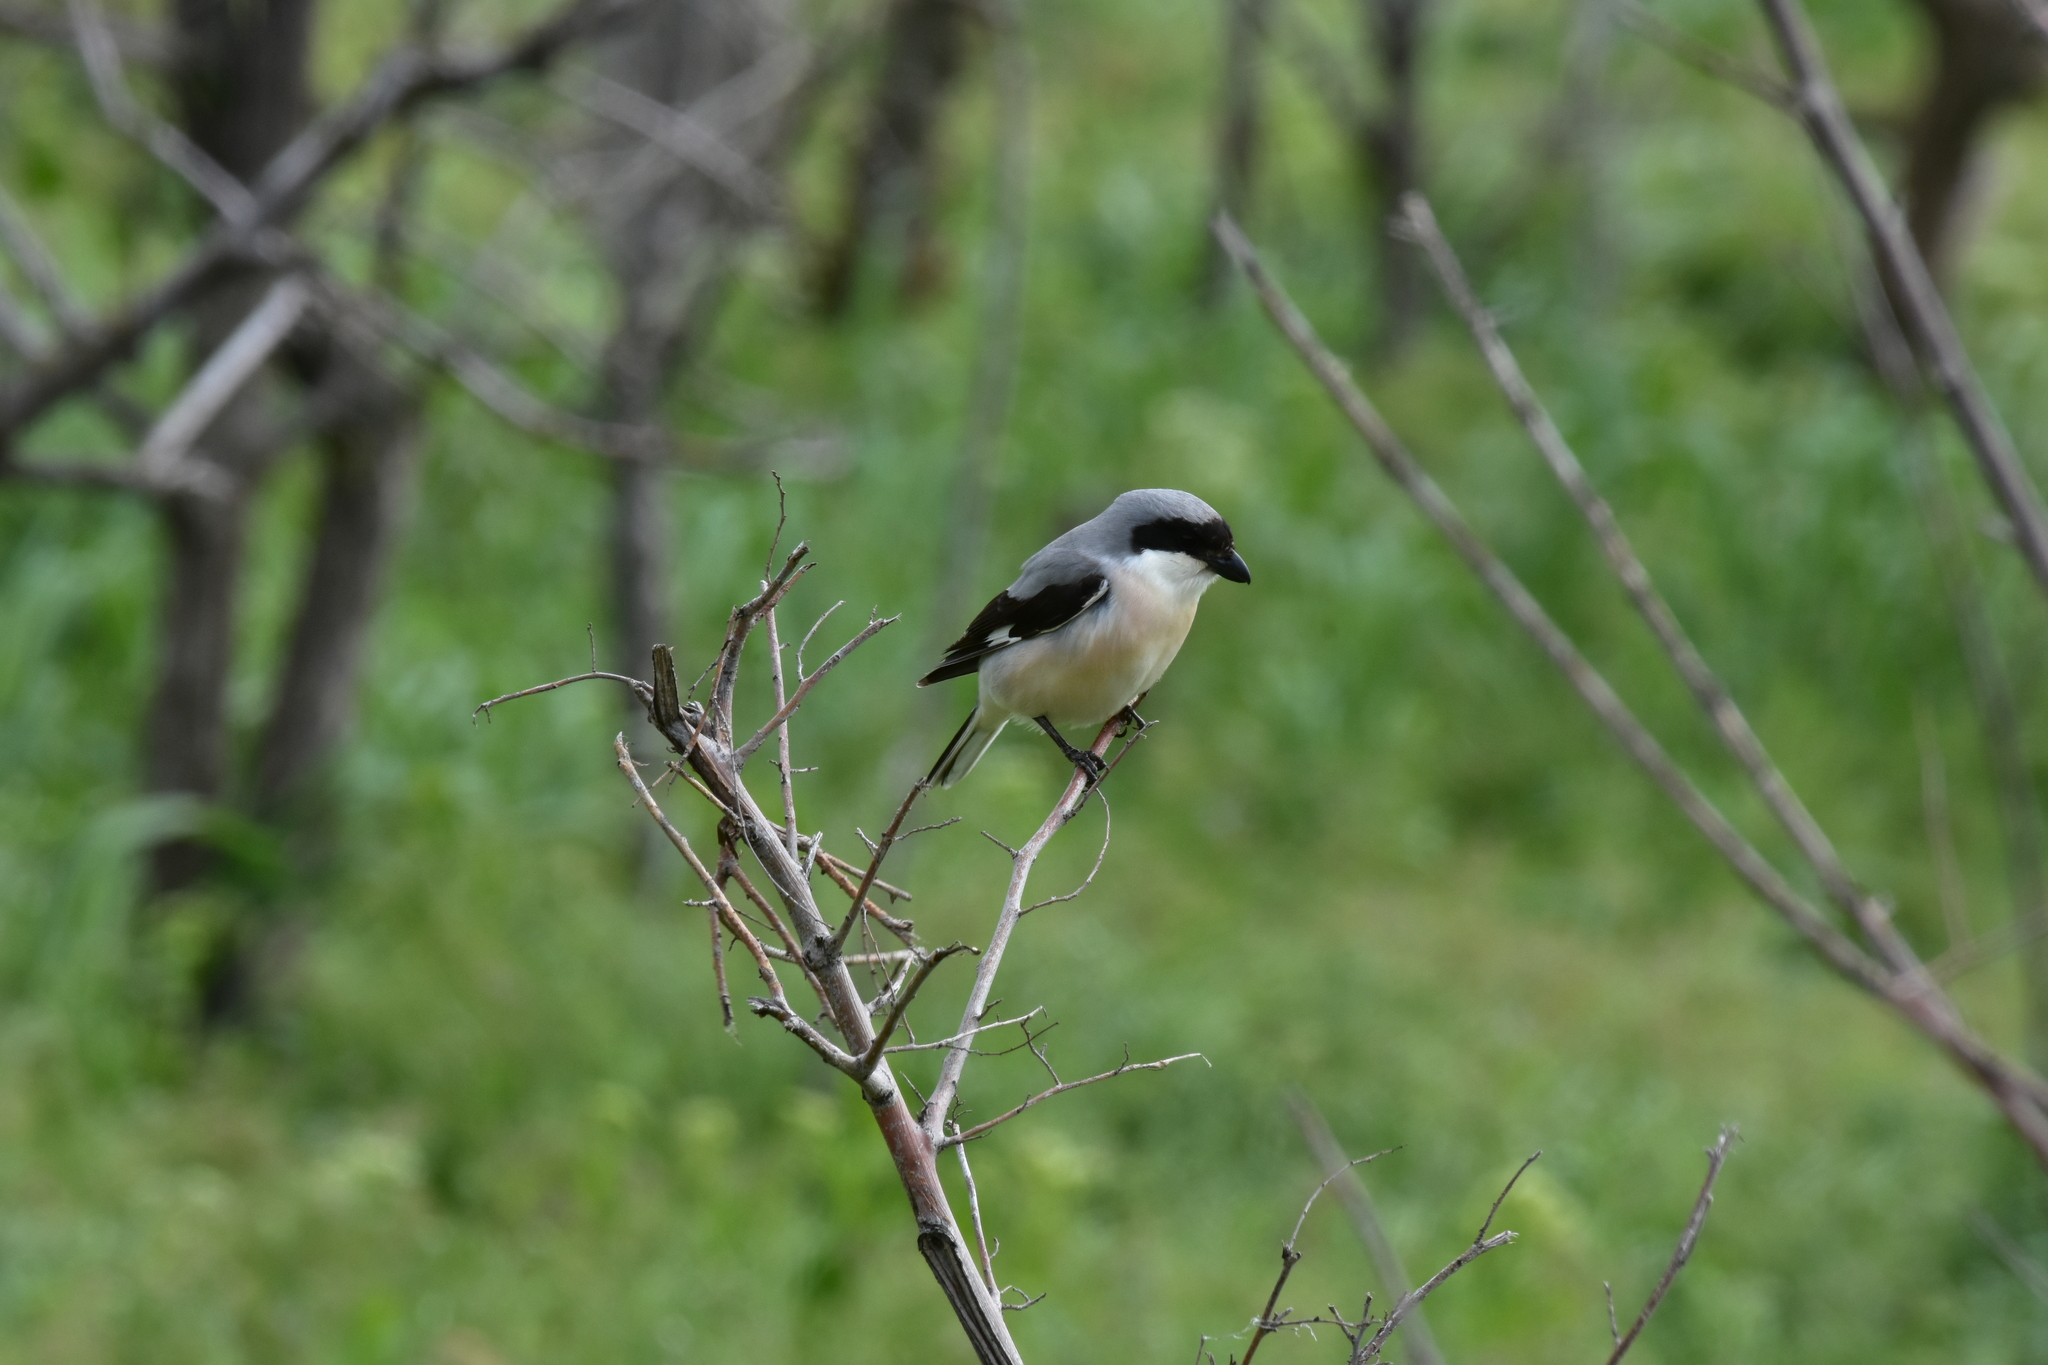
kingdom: Animalia
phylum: Chordata
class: Aves
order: Passeriformes
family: Laniidae
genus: Lanius
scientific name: Lanius minor
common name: Lesser grey shrike
